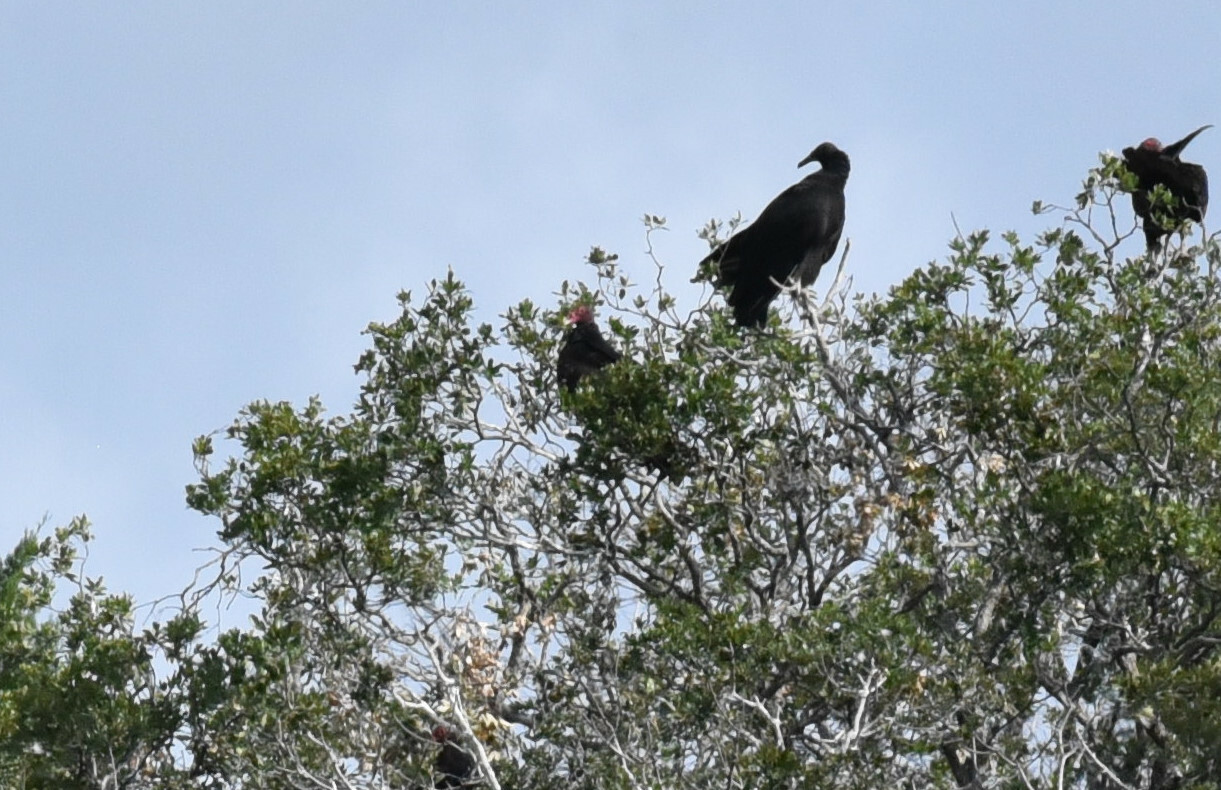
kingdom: Animalia
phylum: Chordata
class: Aves
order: Accipitriformes
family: Cathartidae
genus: Cathartes
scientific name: Cathartes aura
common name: Turkey vulture
